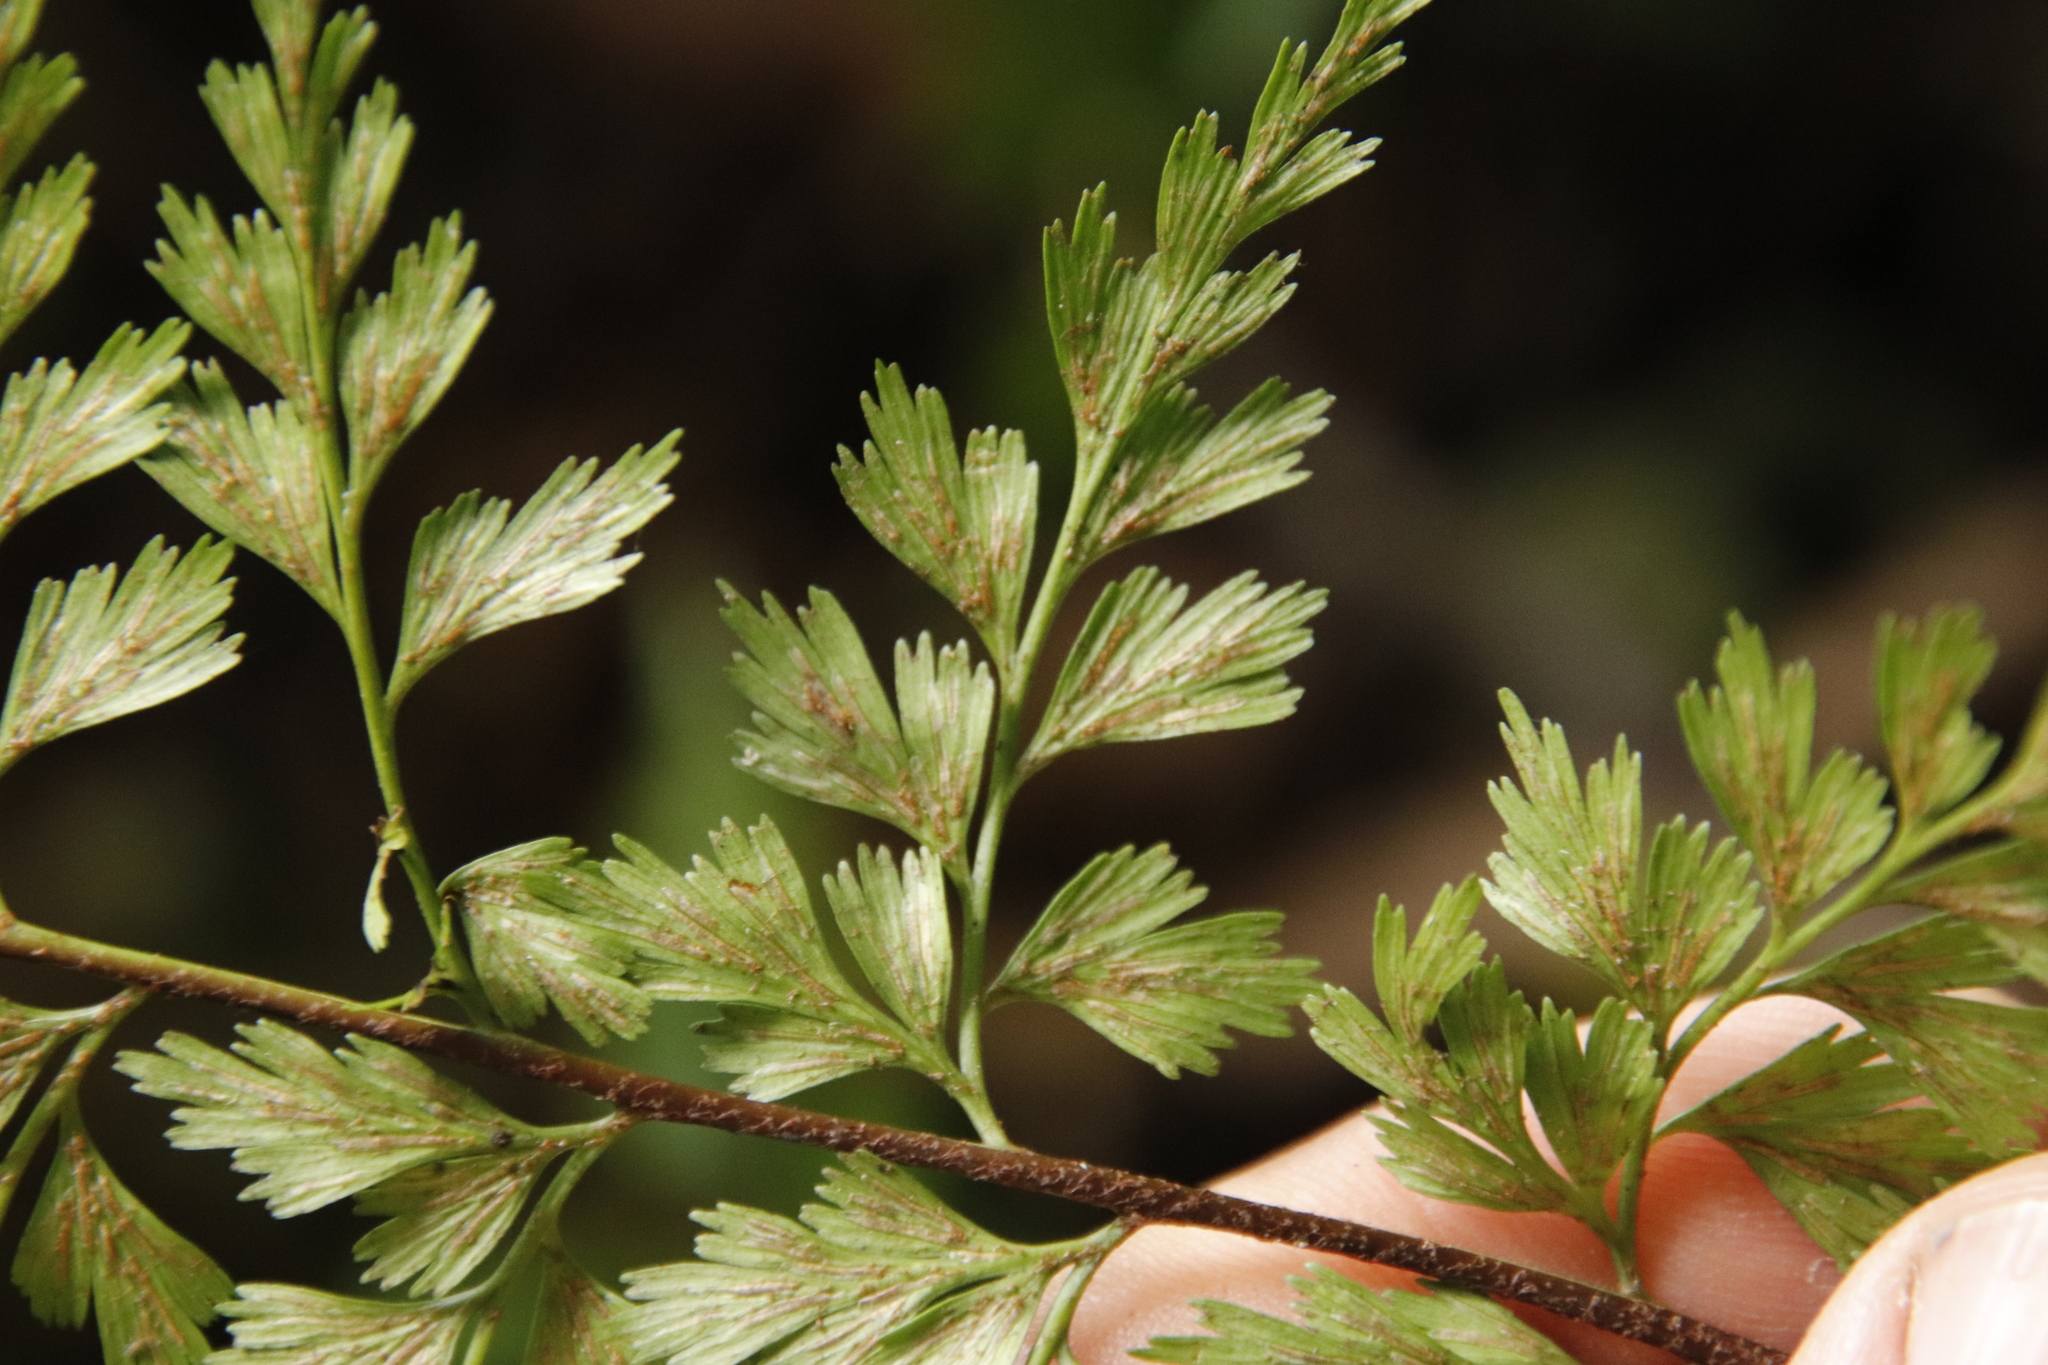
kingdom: Plantae
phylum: Tracheophyta
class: Polypodiopsida
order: Polypodiales
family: Aspleniaceae
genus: Asplenium
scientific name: Asplenium aethiopicum
